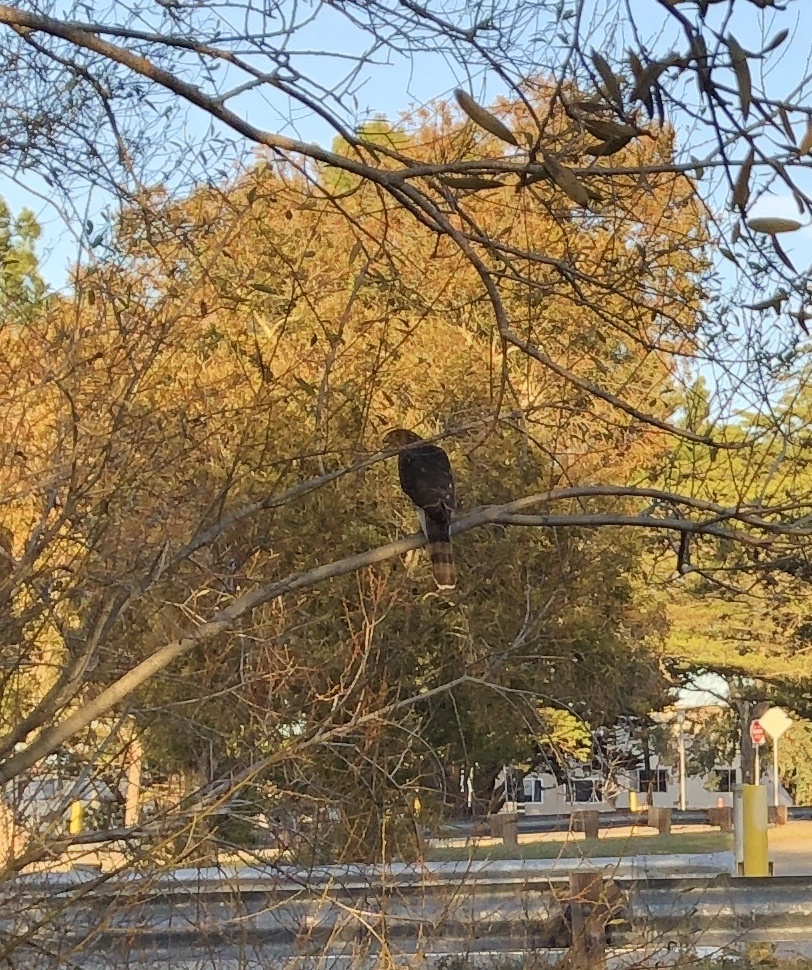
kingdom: Animalia
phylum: Chordata
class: Aves
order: Accipitriformes
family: Accipitridae
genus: Accipiter
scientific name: Accipiter cooperii
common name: Cooper's hawk
